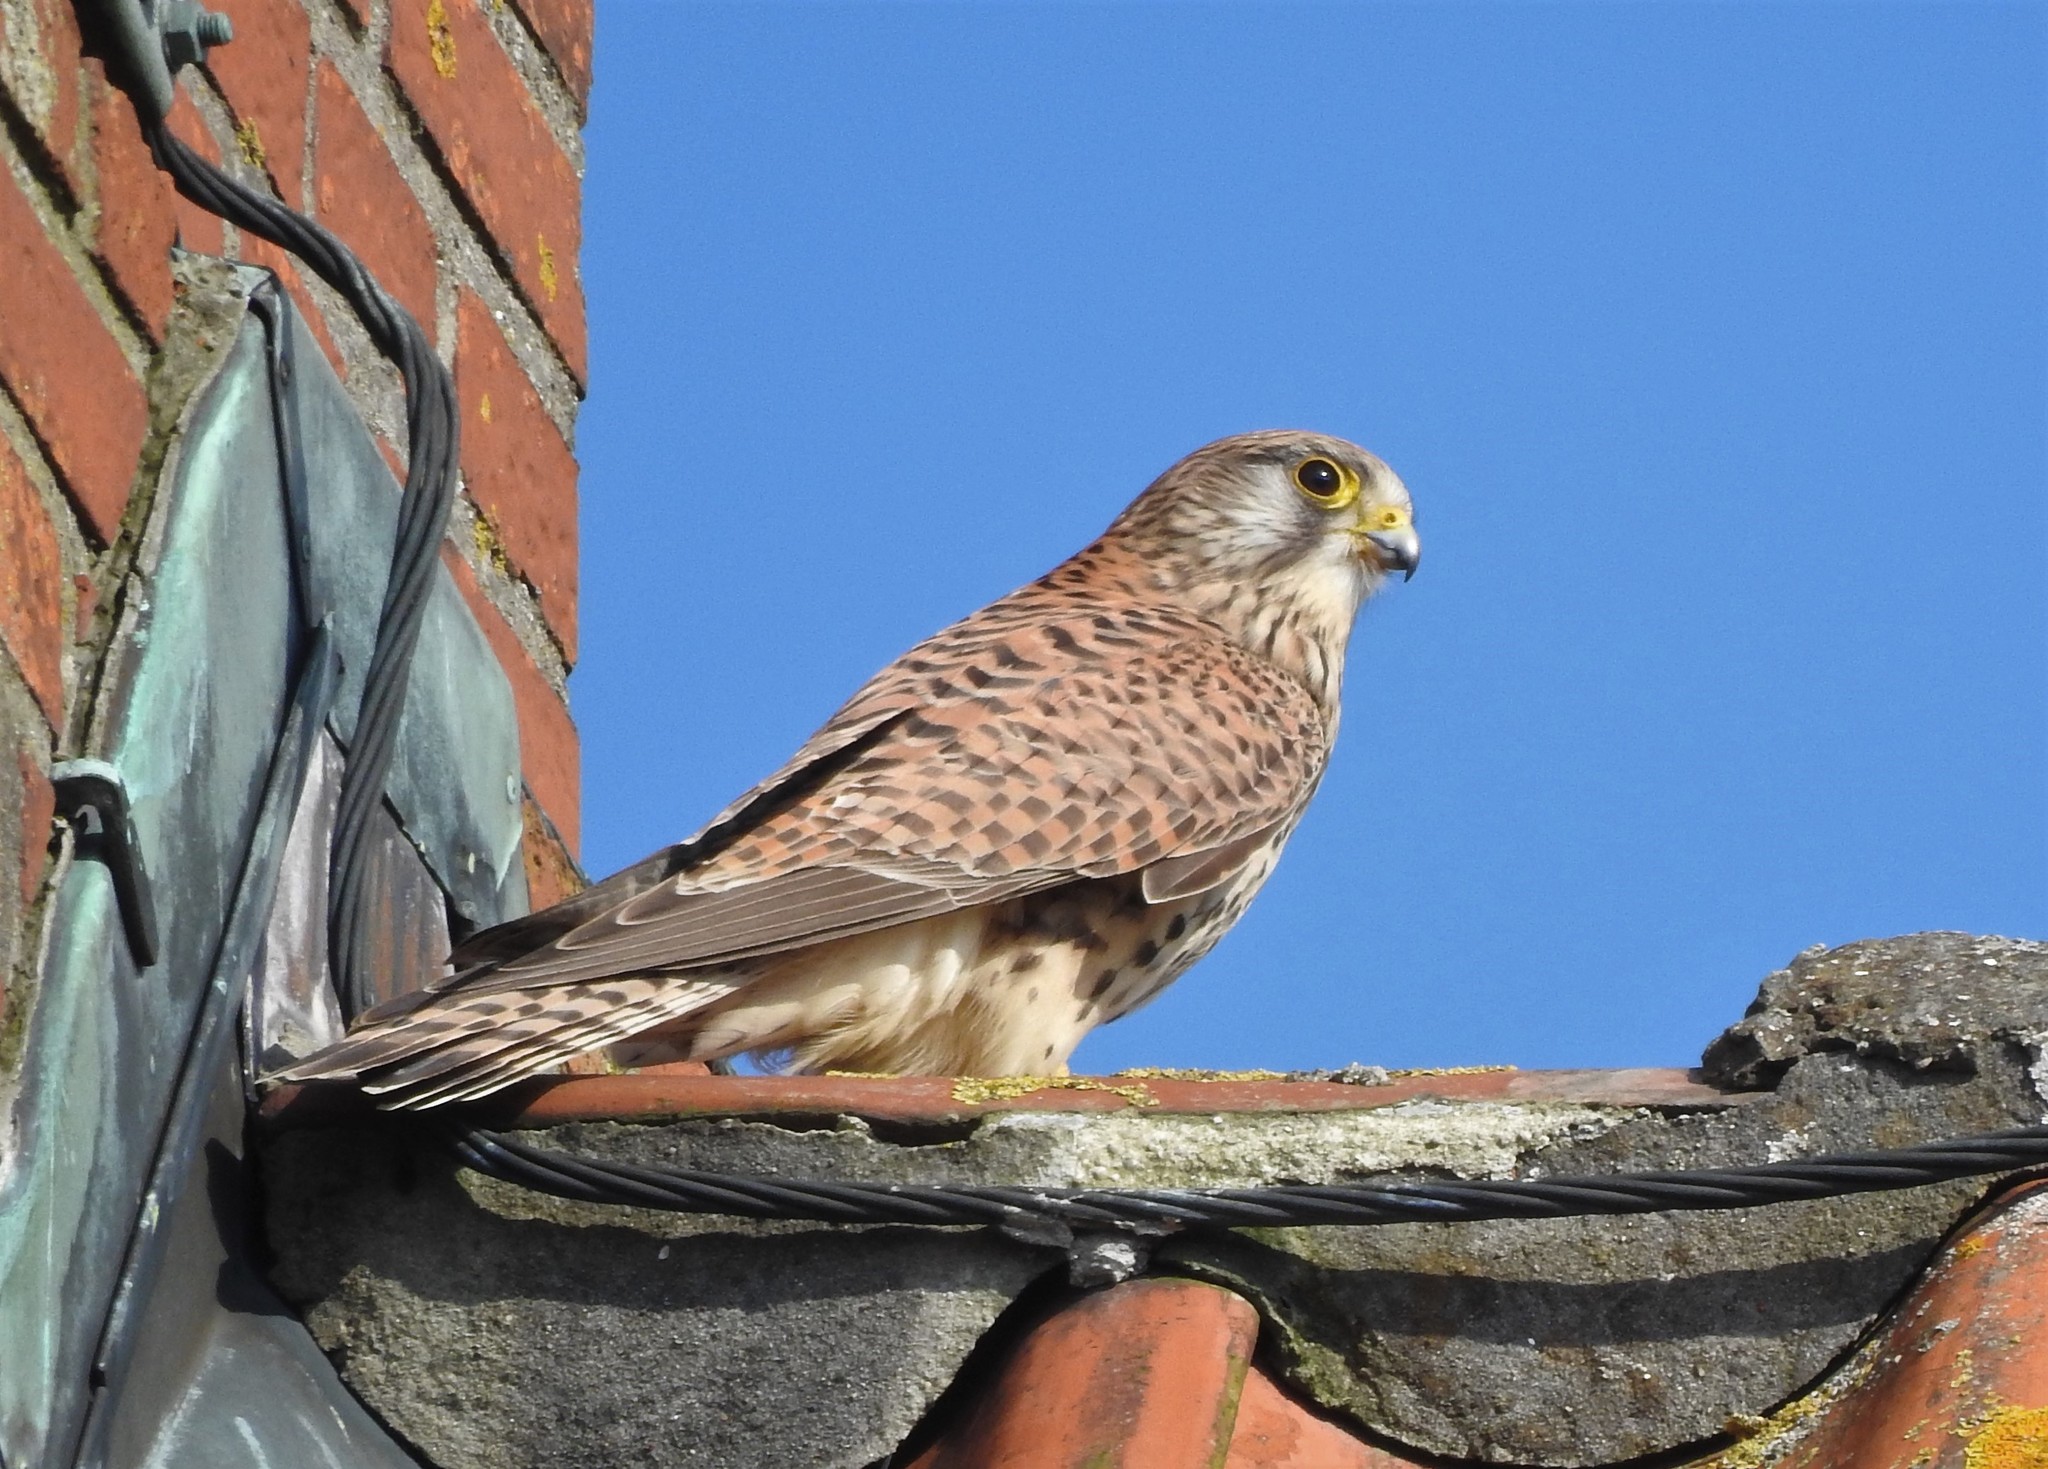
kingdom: Animalia
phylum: Chordata
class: Aves
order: Falconiformes
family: Falconidae
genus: Falco
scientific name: Falco tinnunculus
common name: Common kestrel
